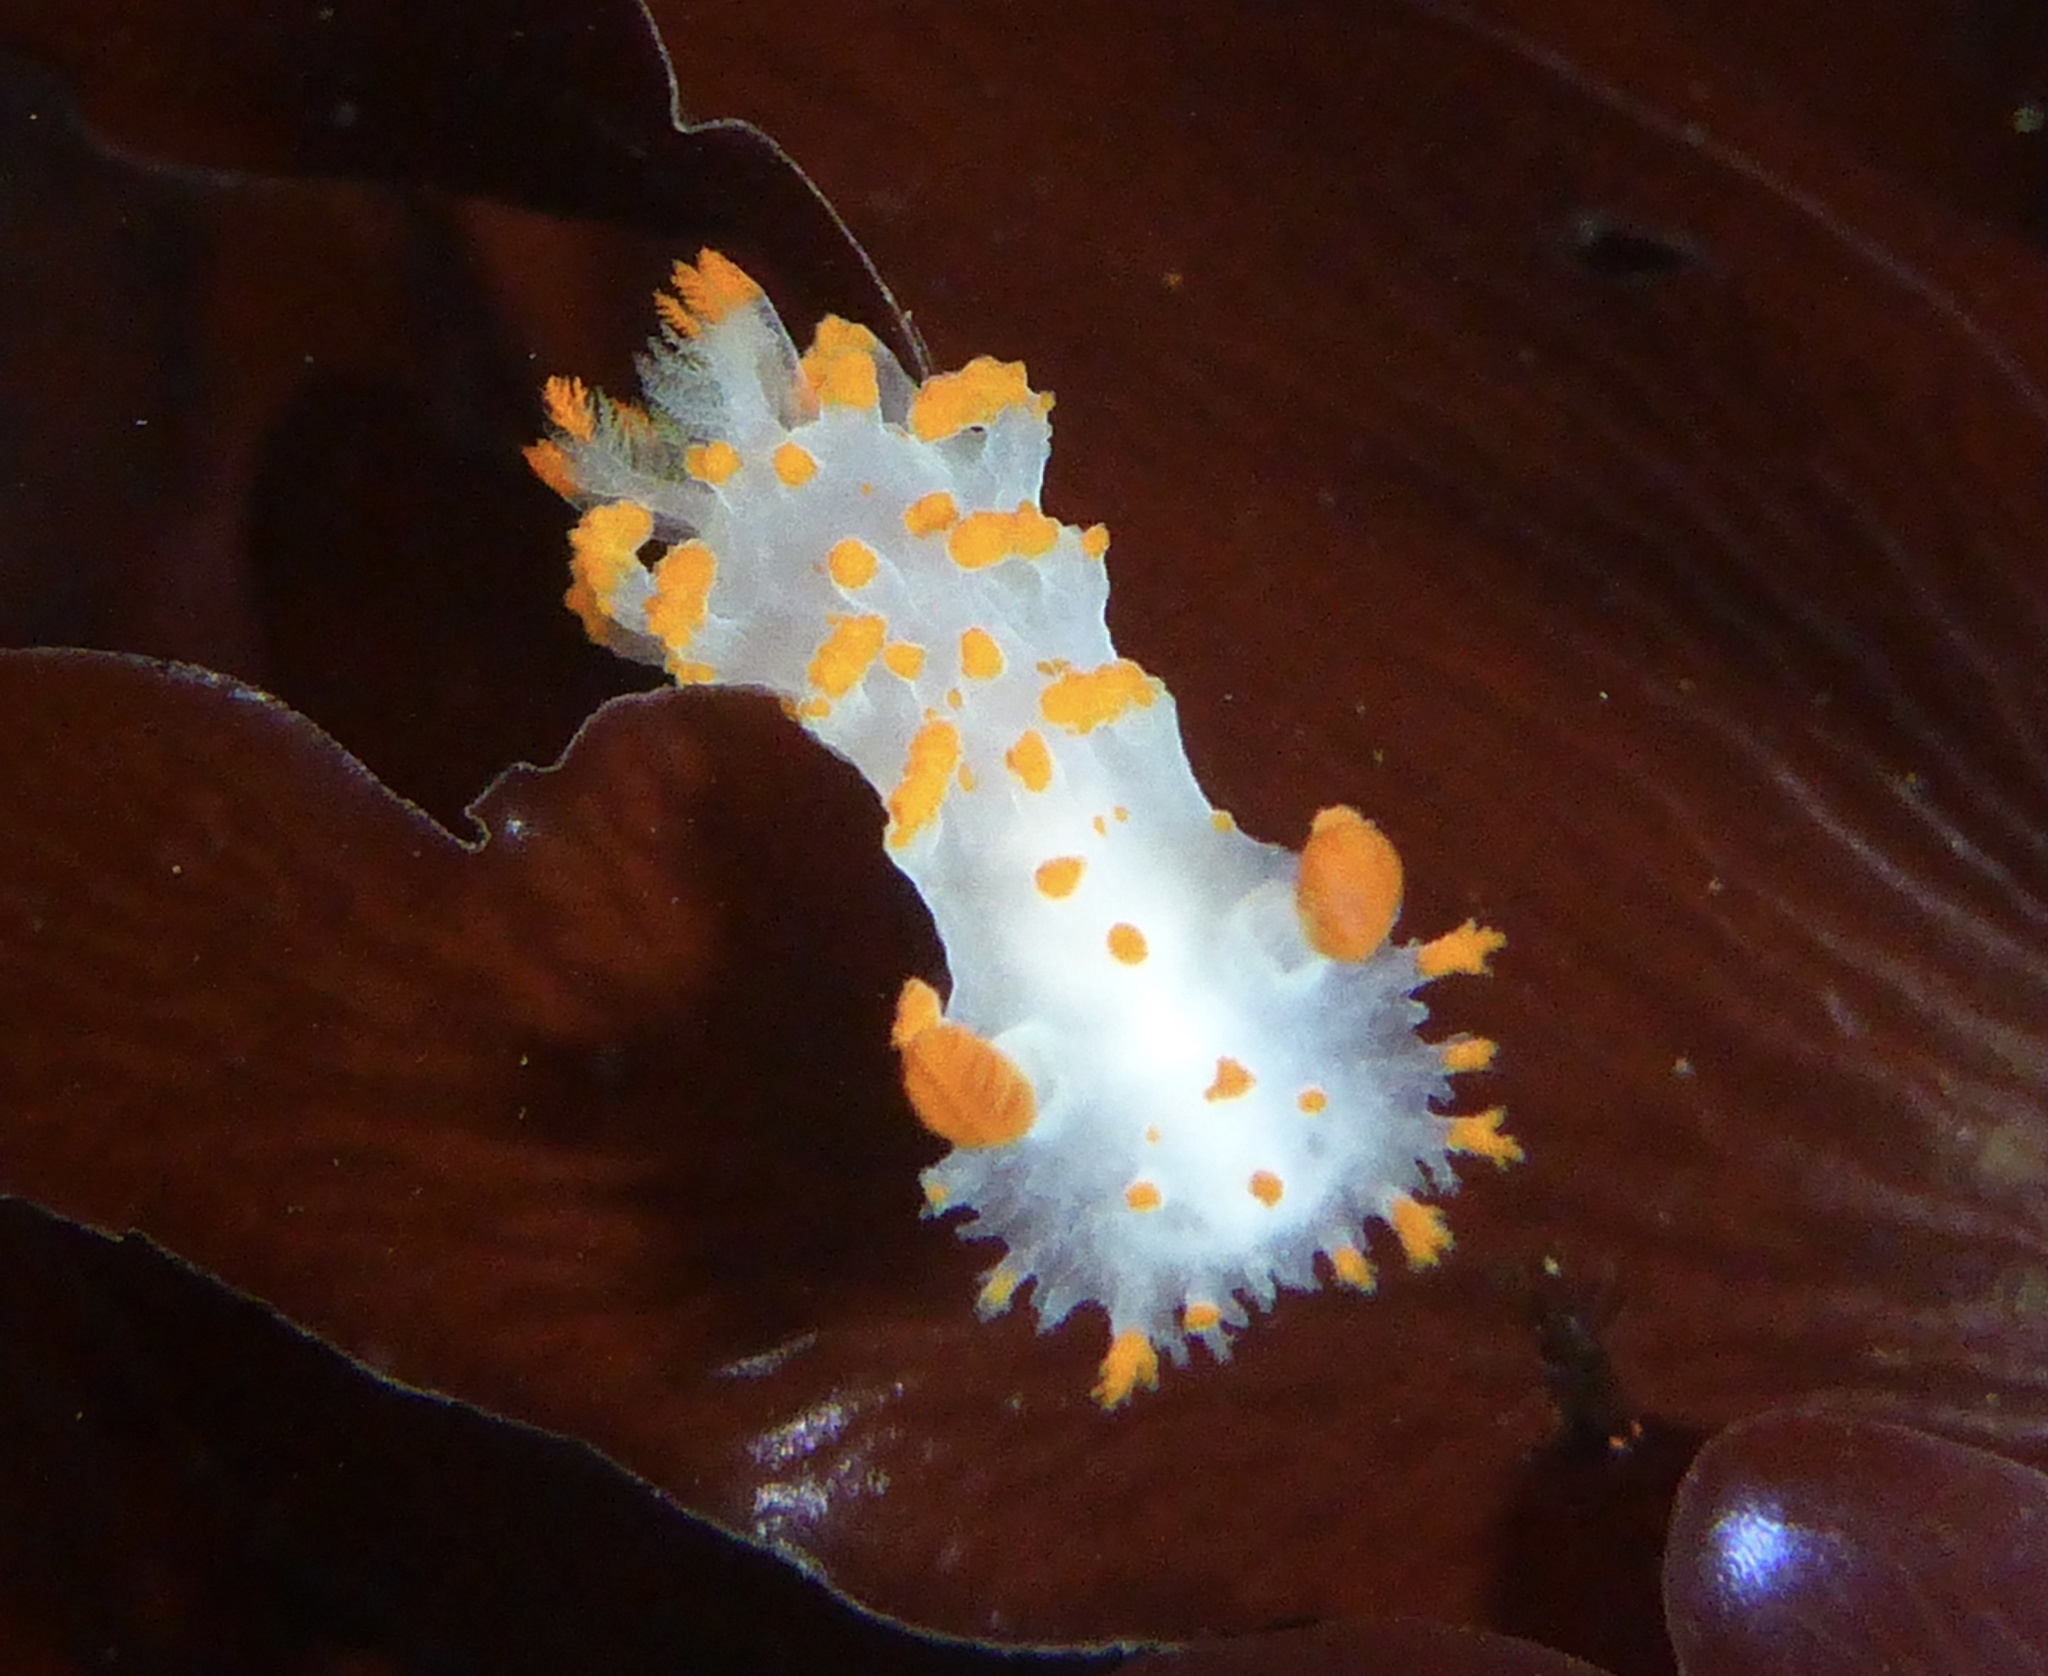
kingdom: Animalia
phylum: Mollusca
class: Gastropoda
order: Nudibranchia
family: Polyceridae
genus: Triopha
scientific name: Triopha catalinae
